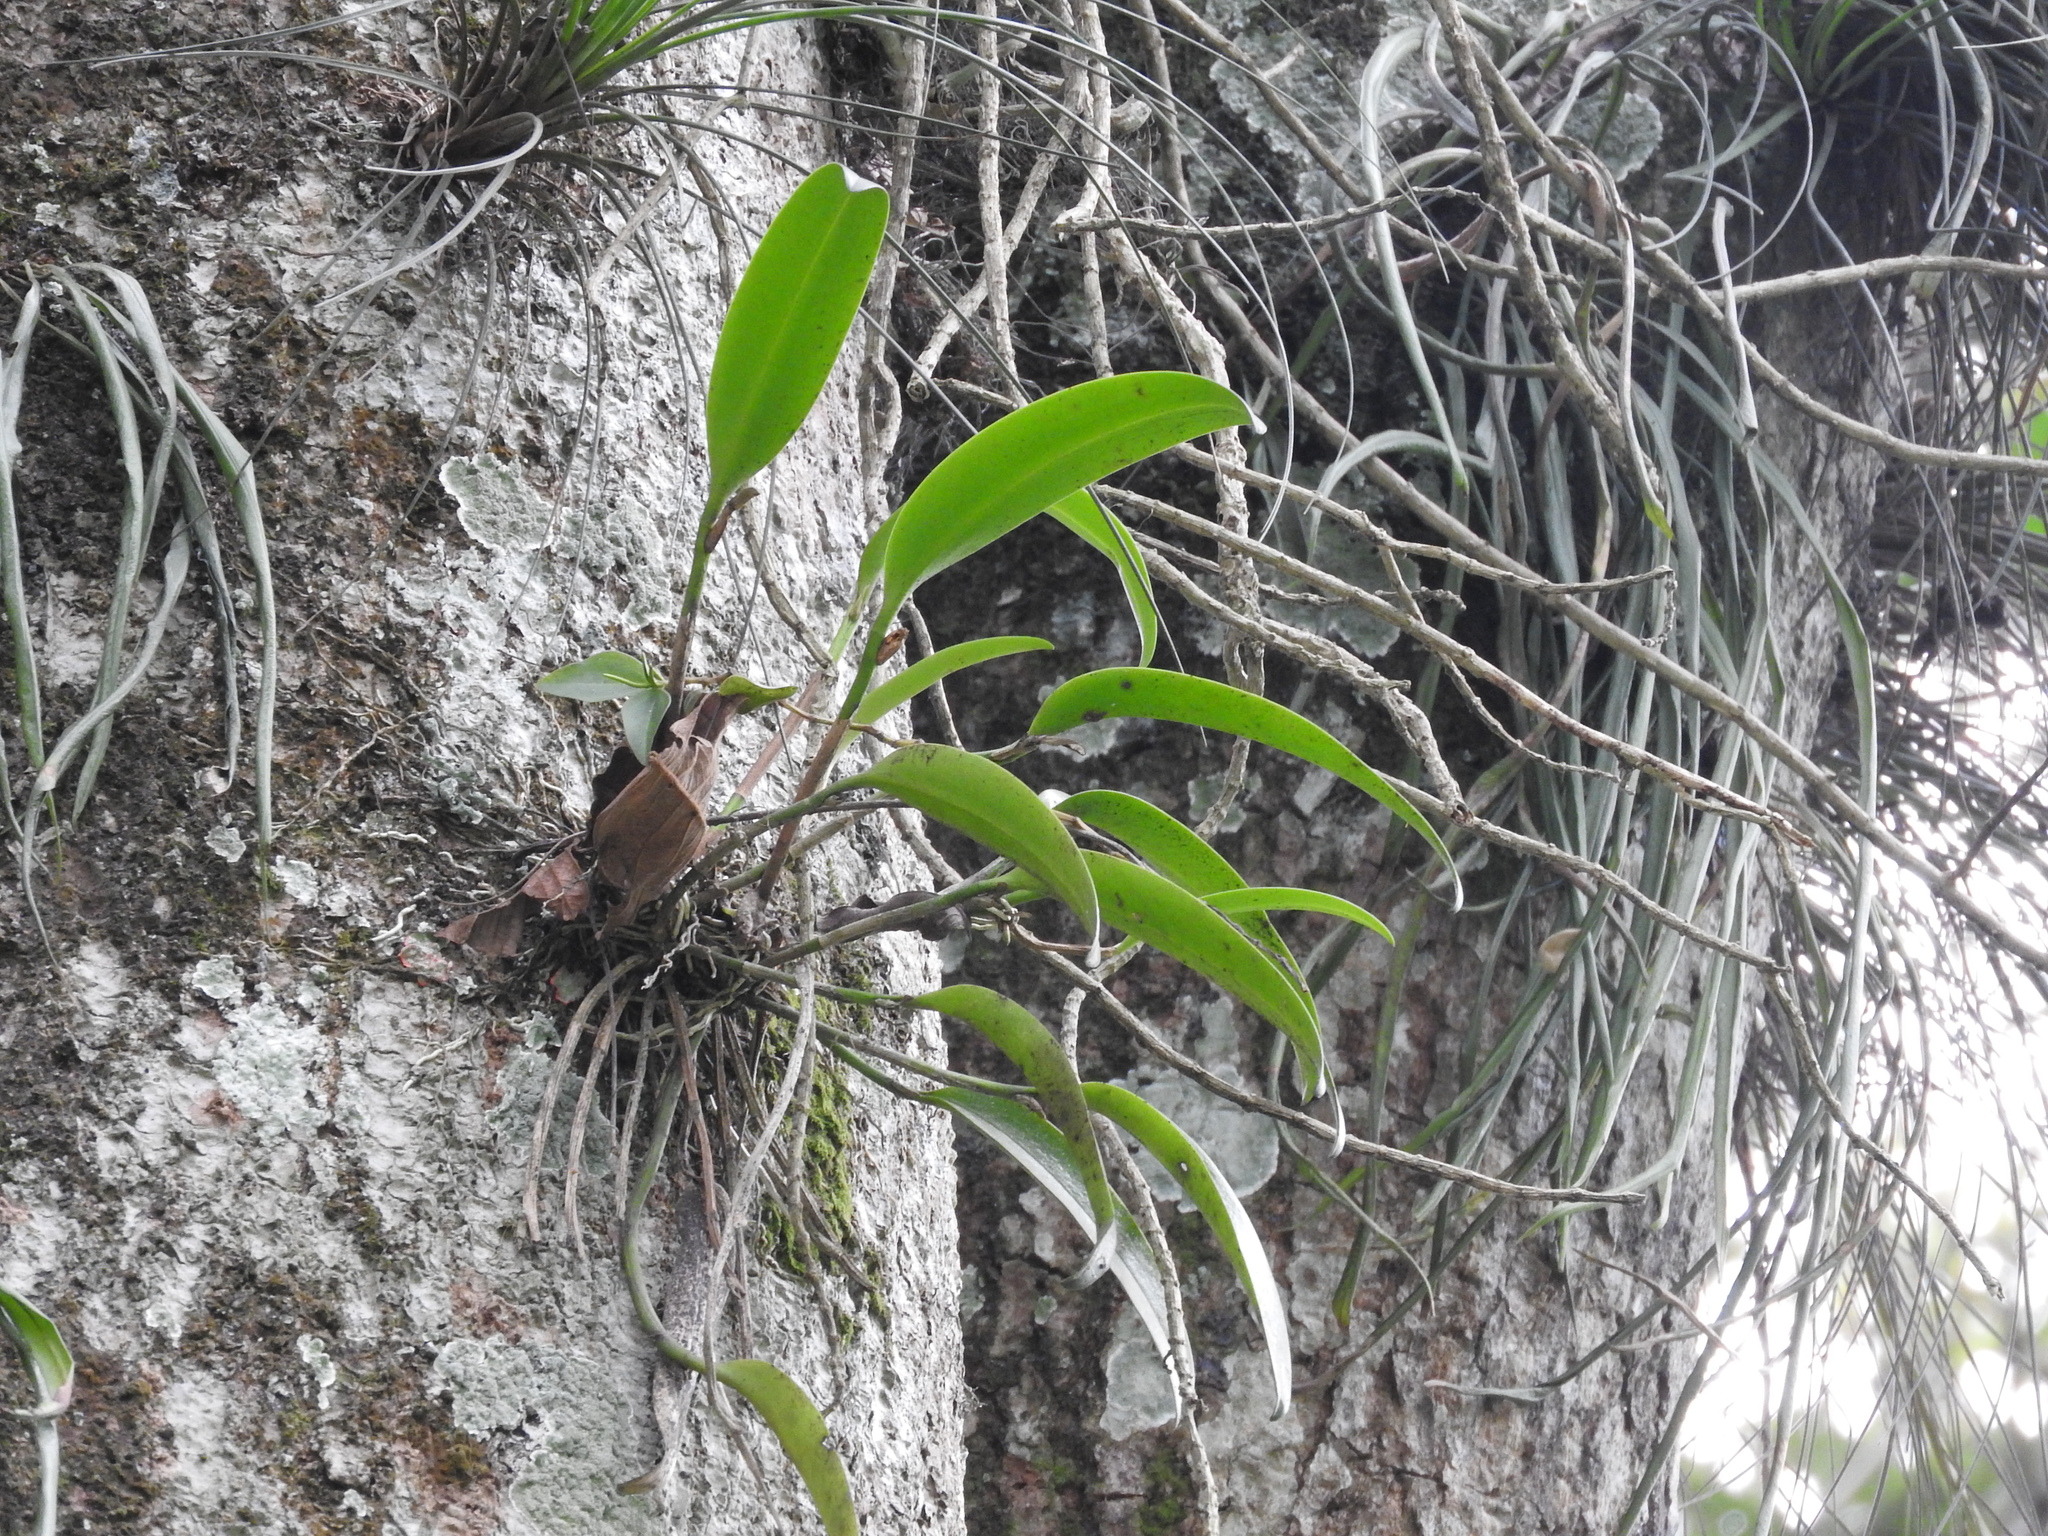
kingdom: Plantae
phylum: Tracheophyta
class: Liliopsida
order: Asparagales
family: Orchidaceae
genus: Restrepiella
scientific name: Restrepiella ophiocephala
